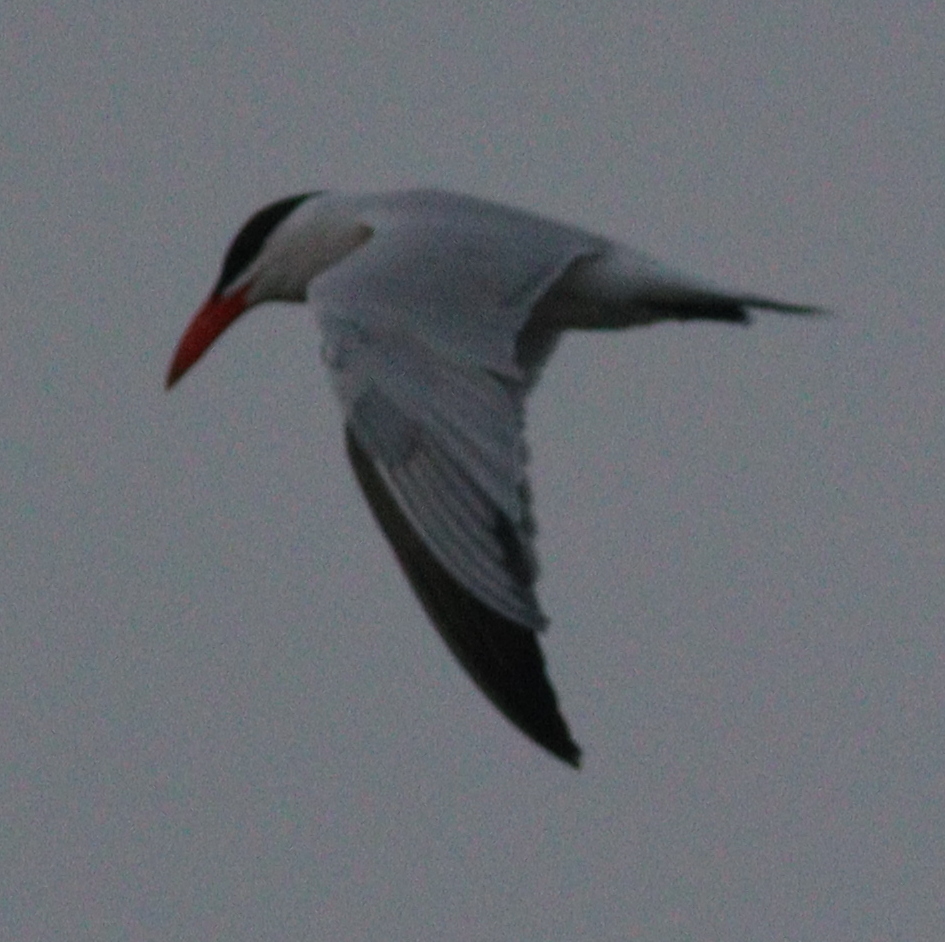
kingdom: Animalia
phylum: Chordata
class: Aves
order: Charadriiformes
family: Laridae
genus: Hydroprogne
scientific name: Hydroprogne caspia
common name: Caspian tern
